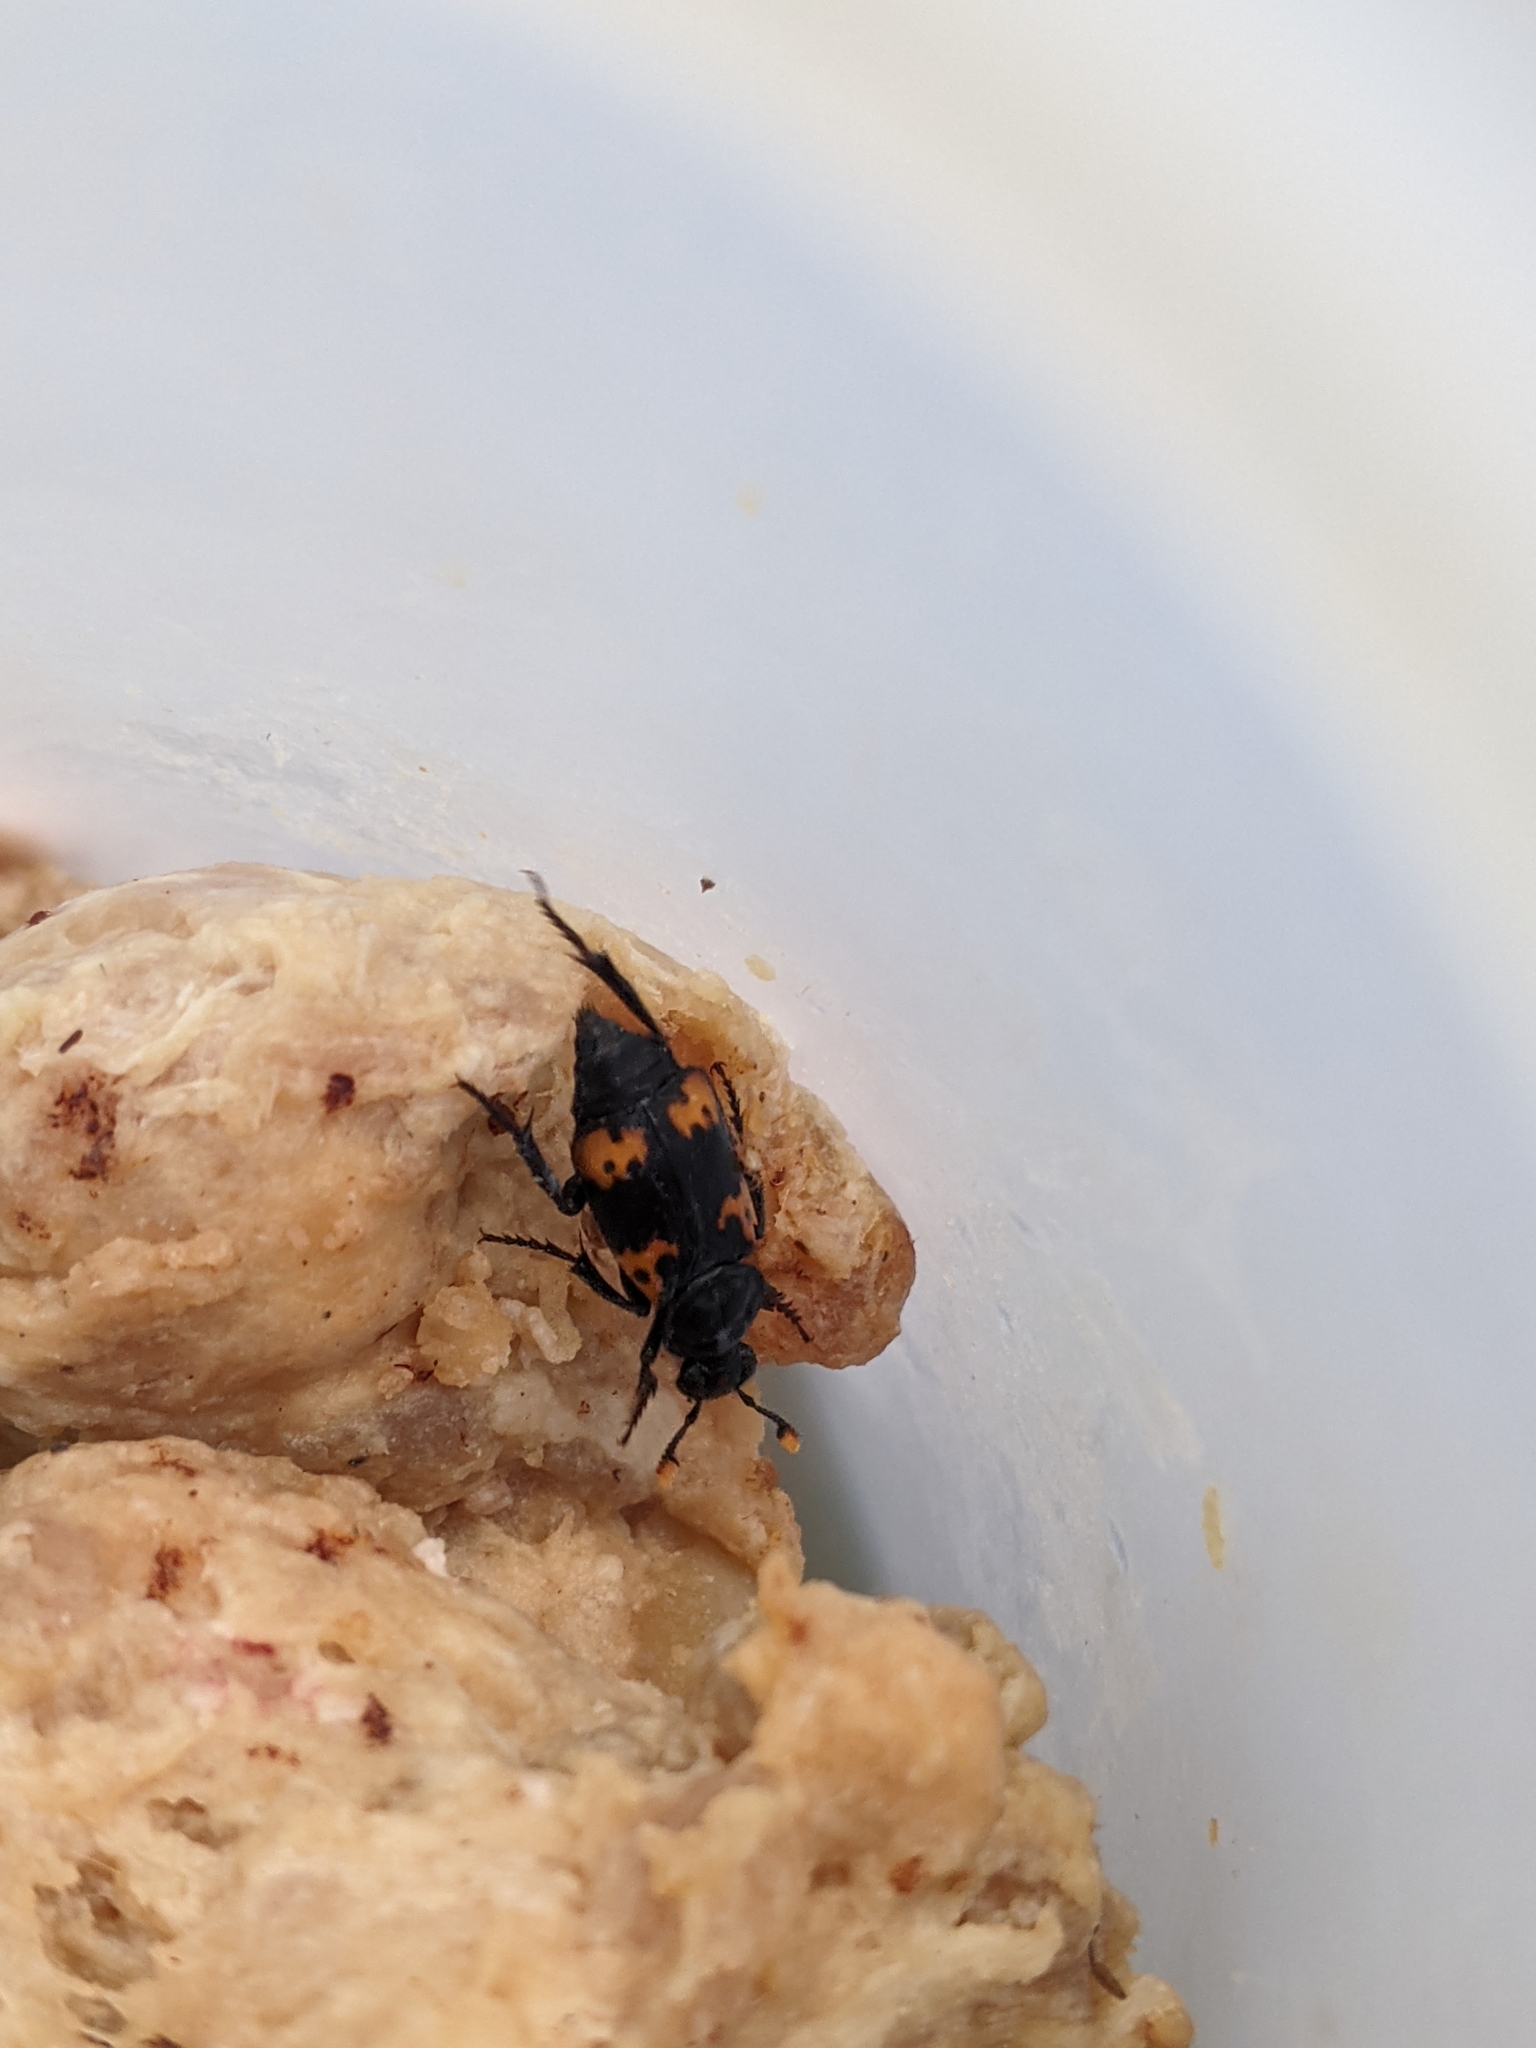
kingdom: Animalia
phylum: Arthropoda
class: Insecta
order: Coleoptera
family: Staphylinidae
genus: Nicrophorus
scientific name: Nicrophorus nepalensis
